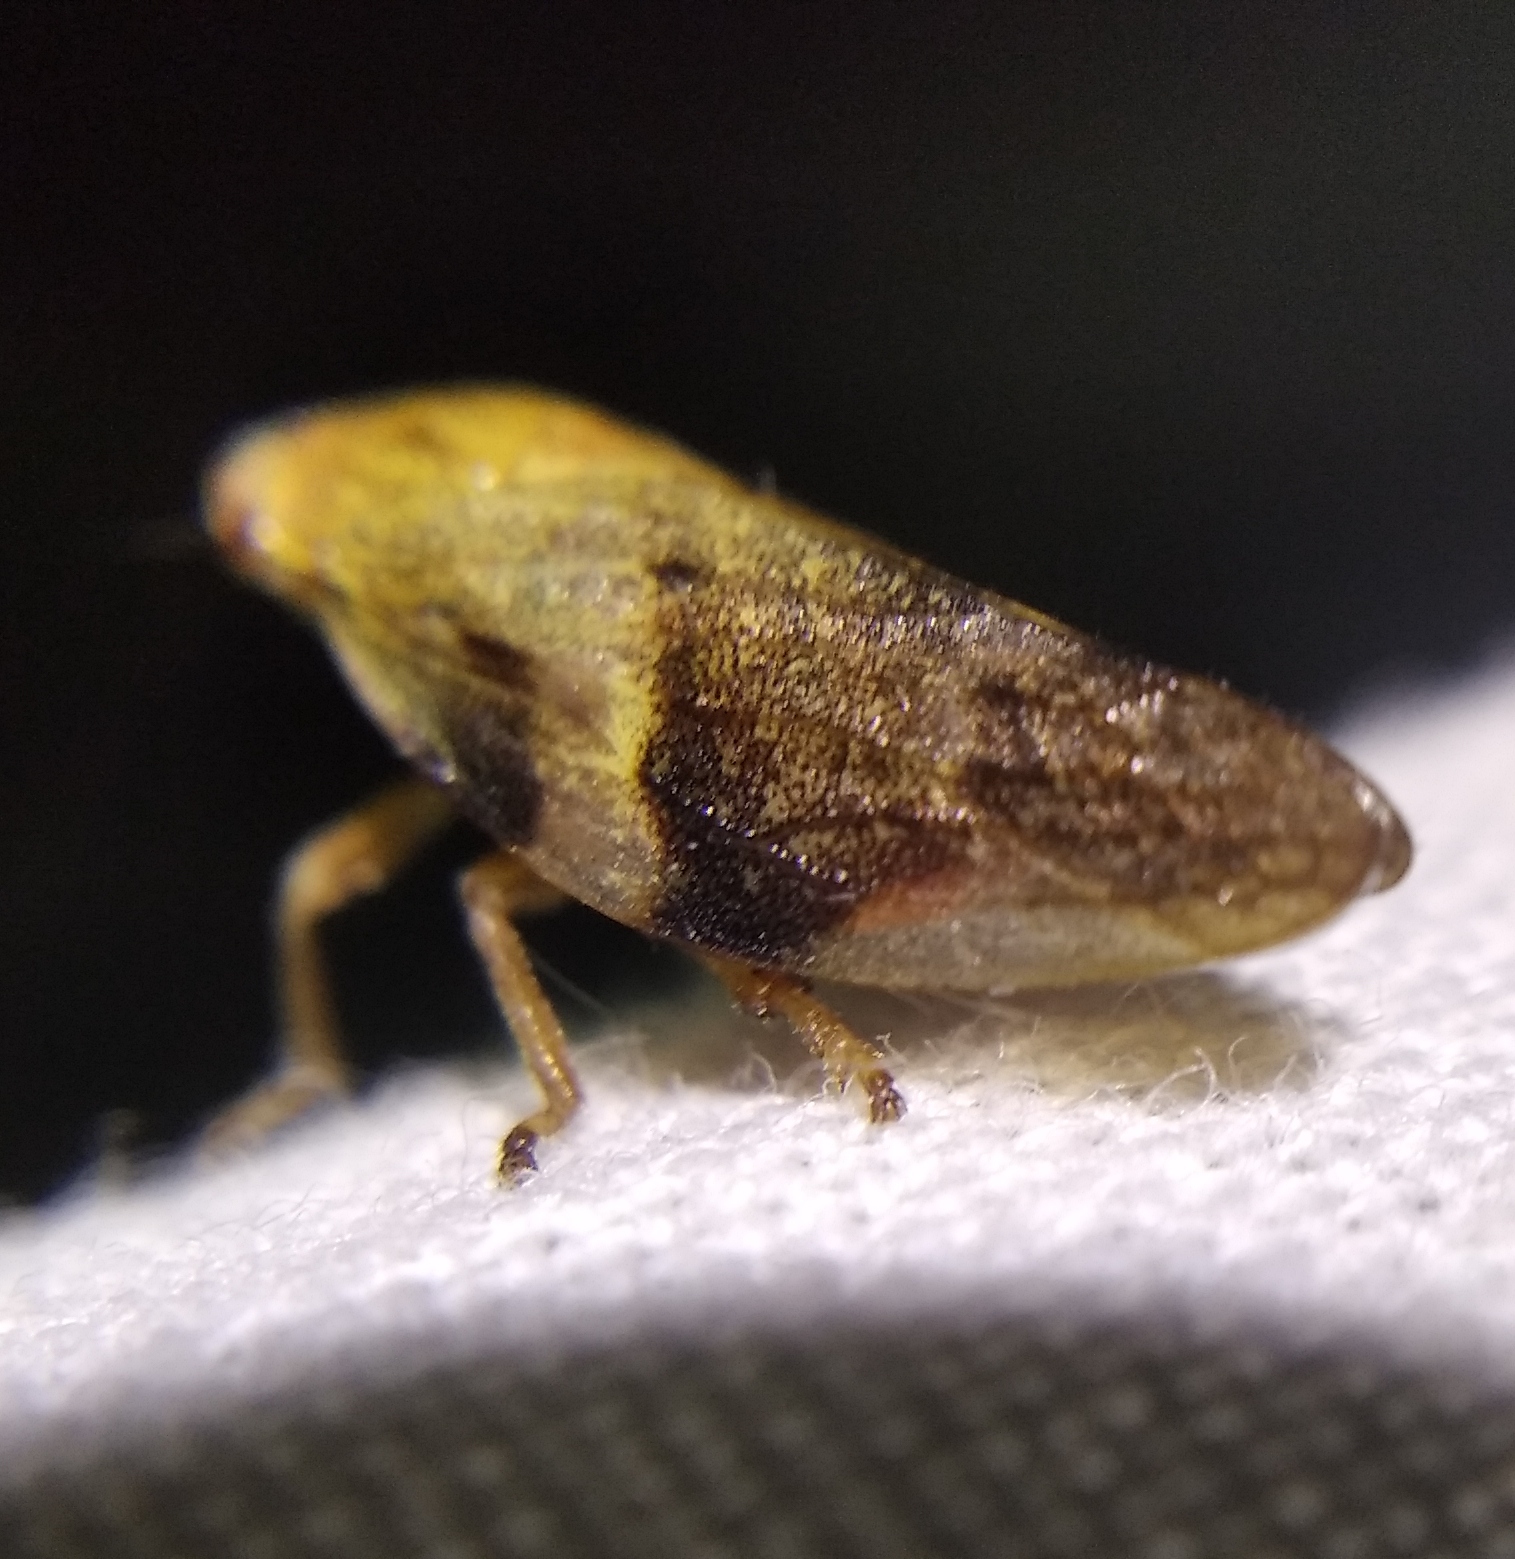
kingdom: Animalia
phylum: Arthropoda
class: Insecta
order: Hemiptera
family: Aphrophoridae
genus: Aphrophora
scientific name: Aphrophora alni
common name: European alder spittlebug
